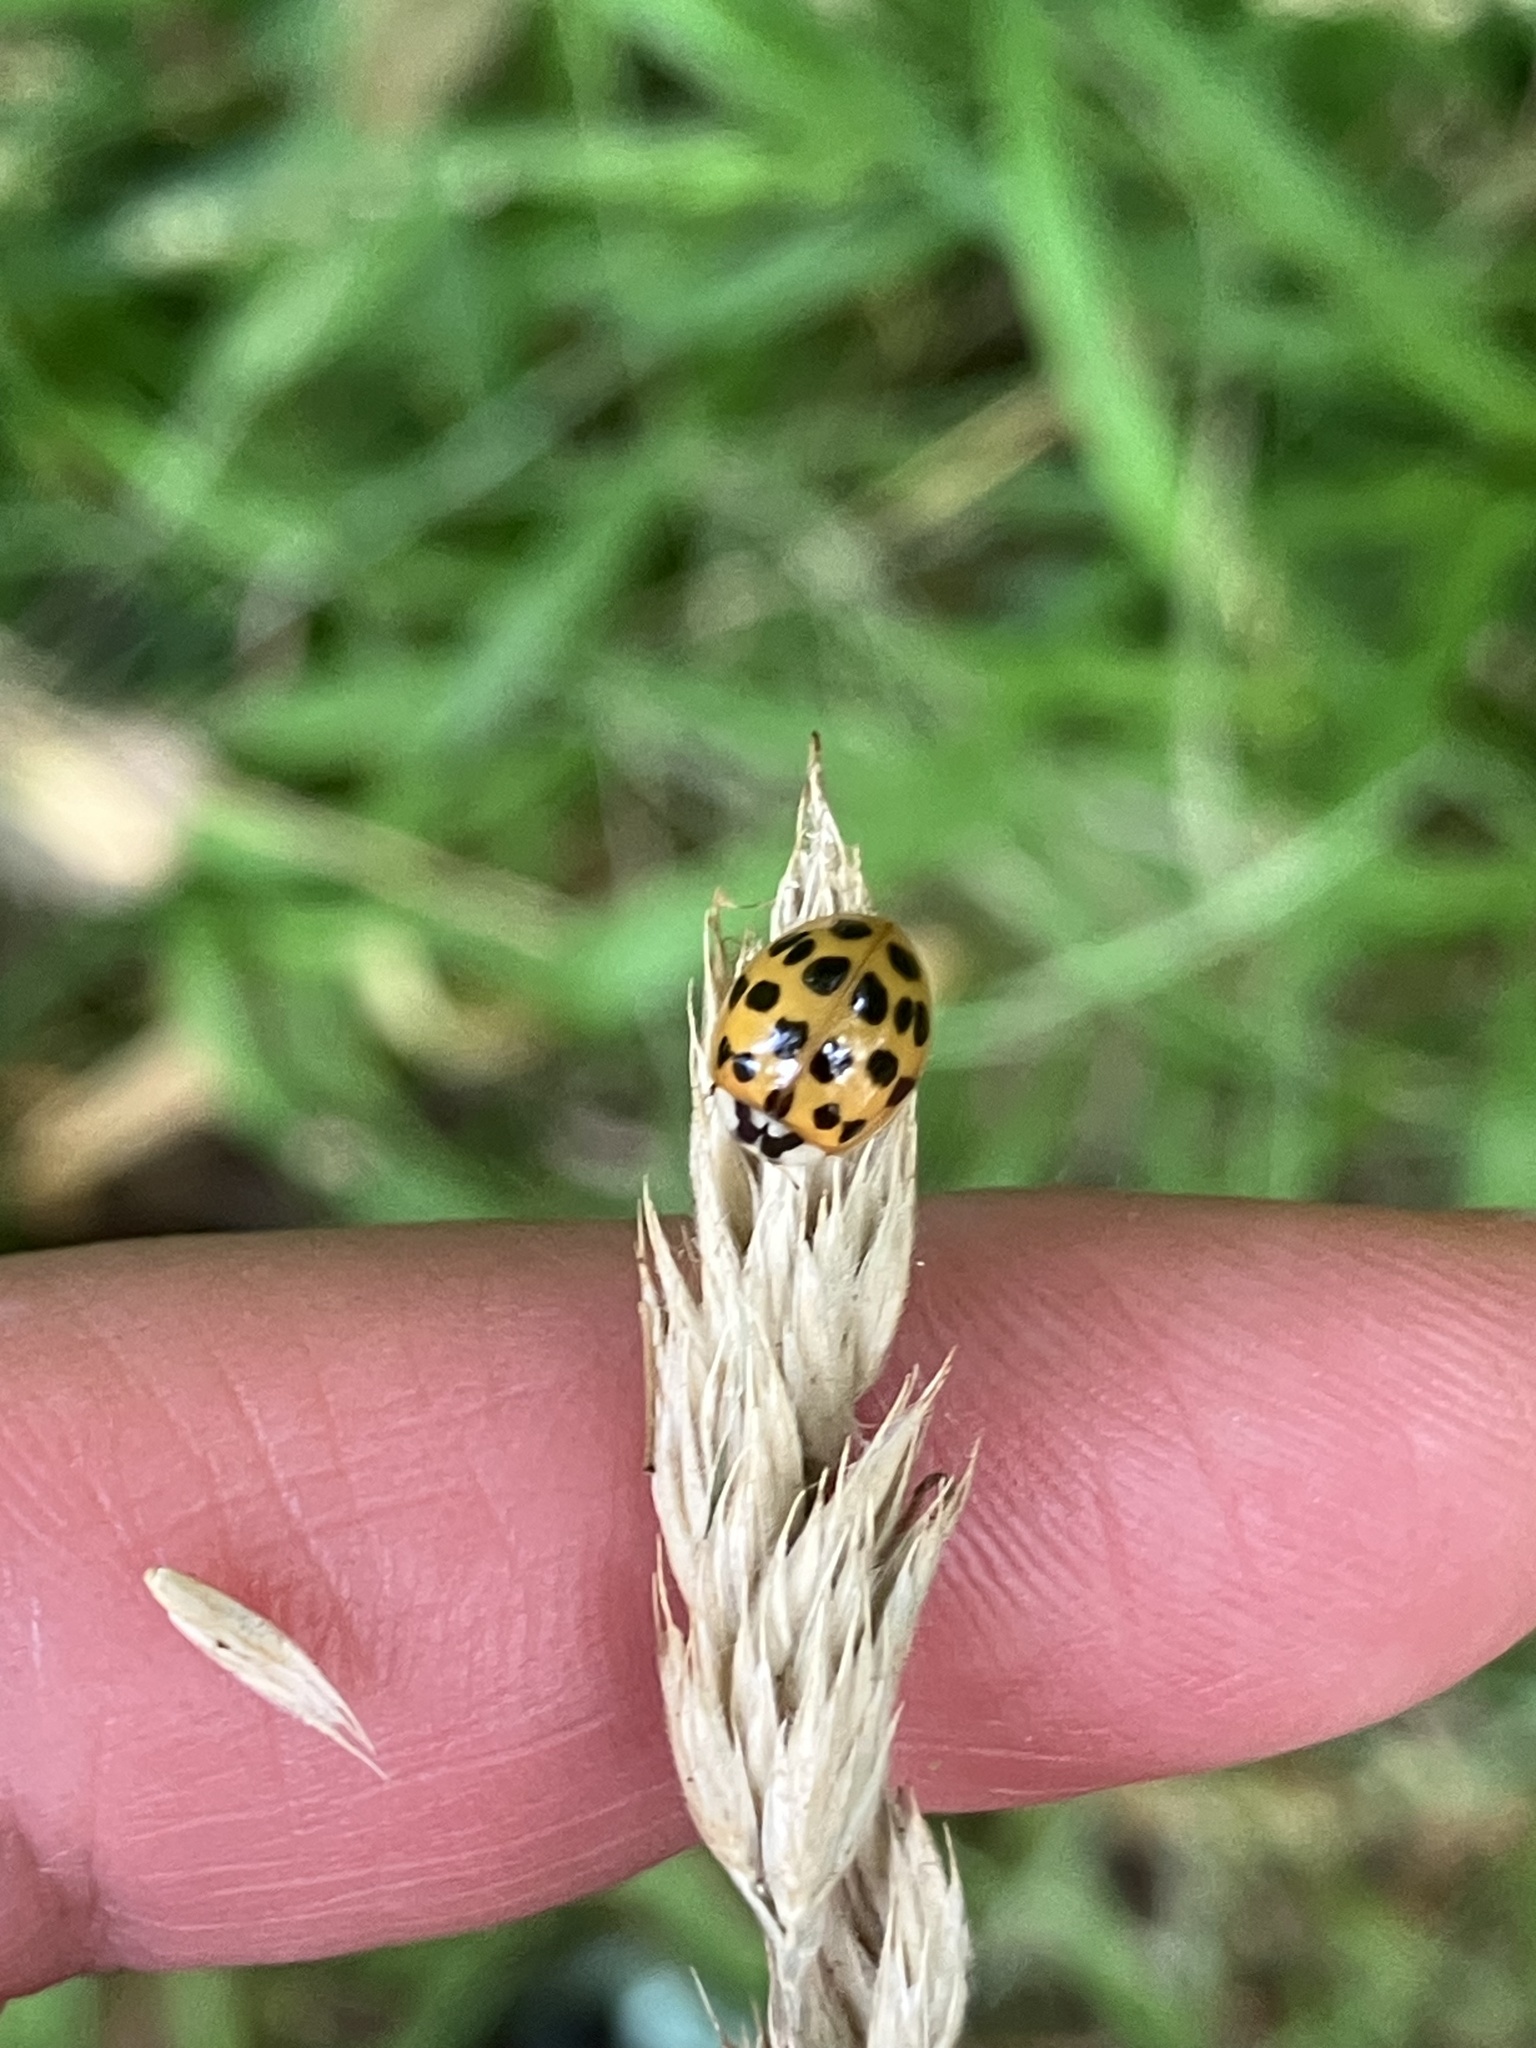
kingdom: Animalia
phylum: Arthropoda
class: Insecta
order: Coleoptera
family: Coccinellidae
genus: Harmonia
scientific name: Harmonia axyridis
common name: Harlequin ladybird
